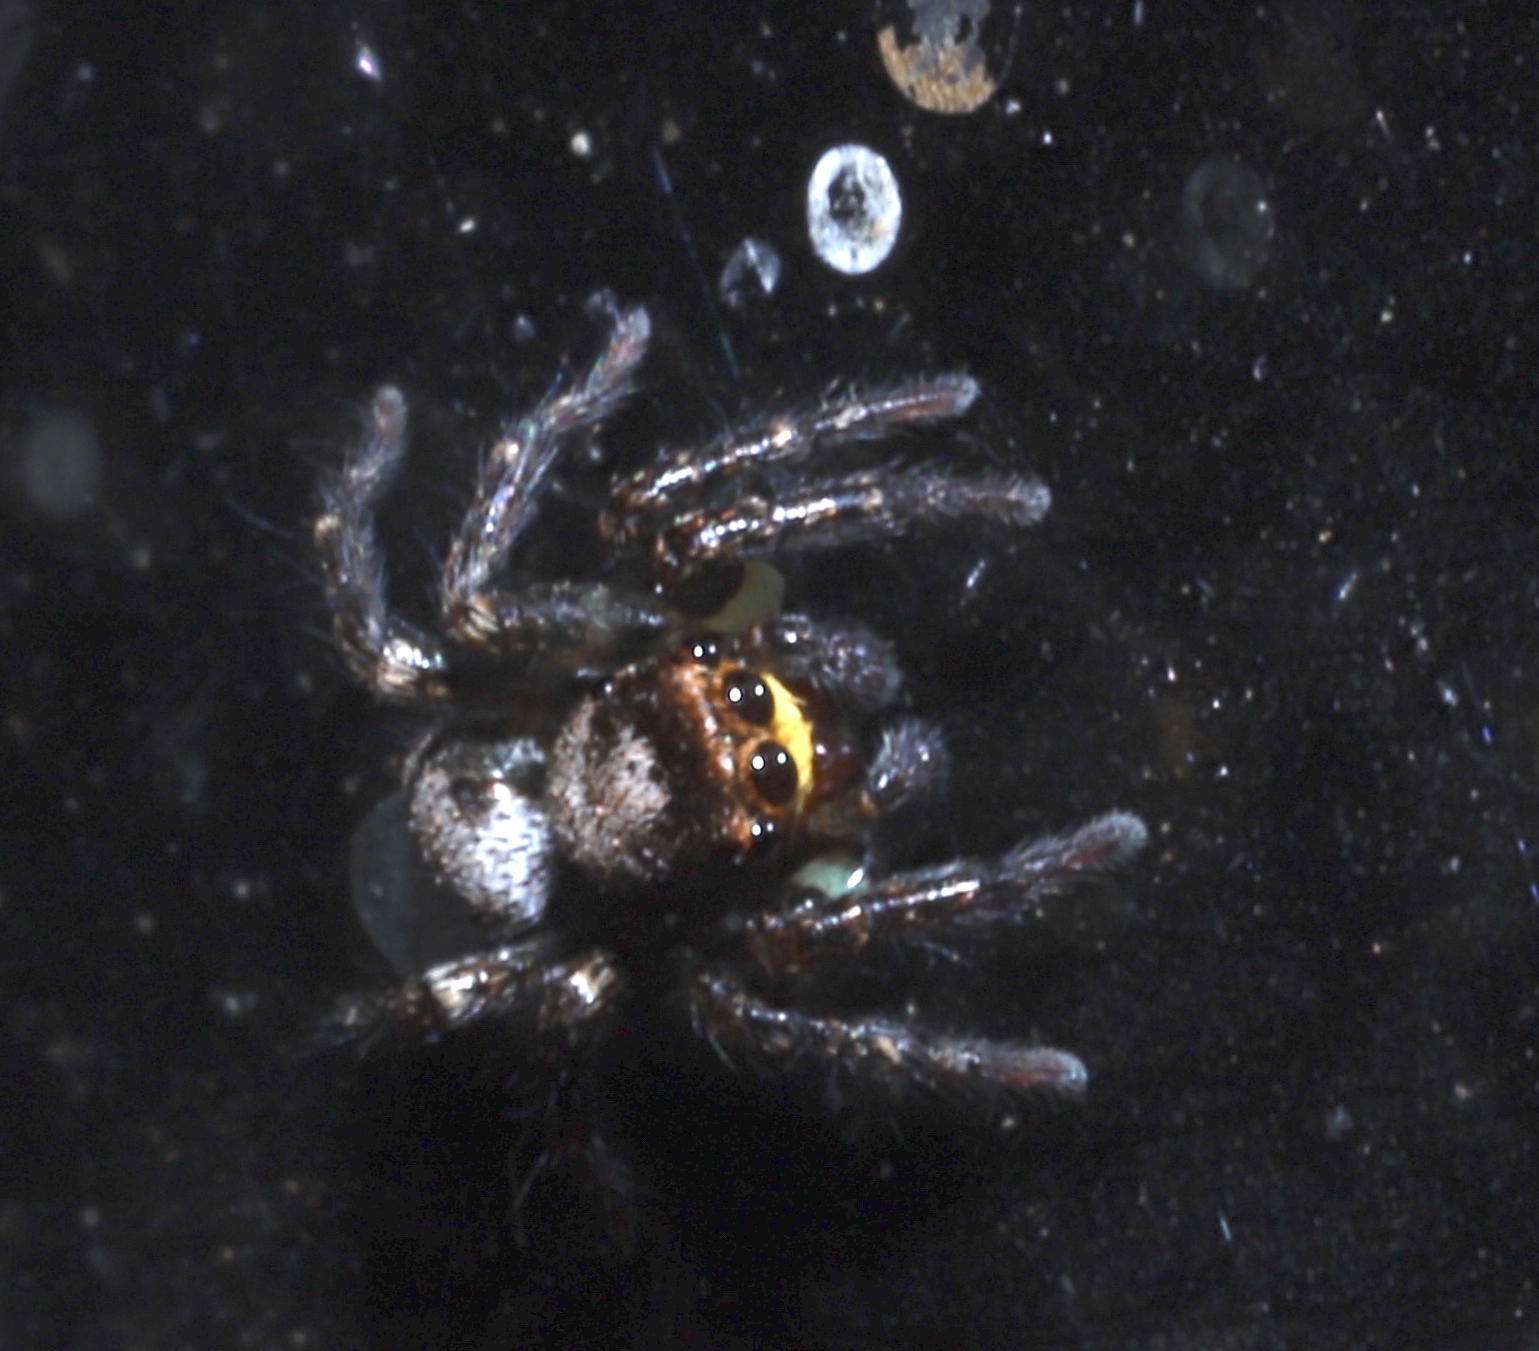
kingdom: Animalia
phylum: Arthropoda
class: Arachnida
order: Araneae
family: Salticidae
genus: Saphrys
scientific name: Saphrys rusticana
